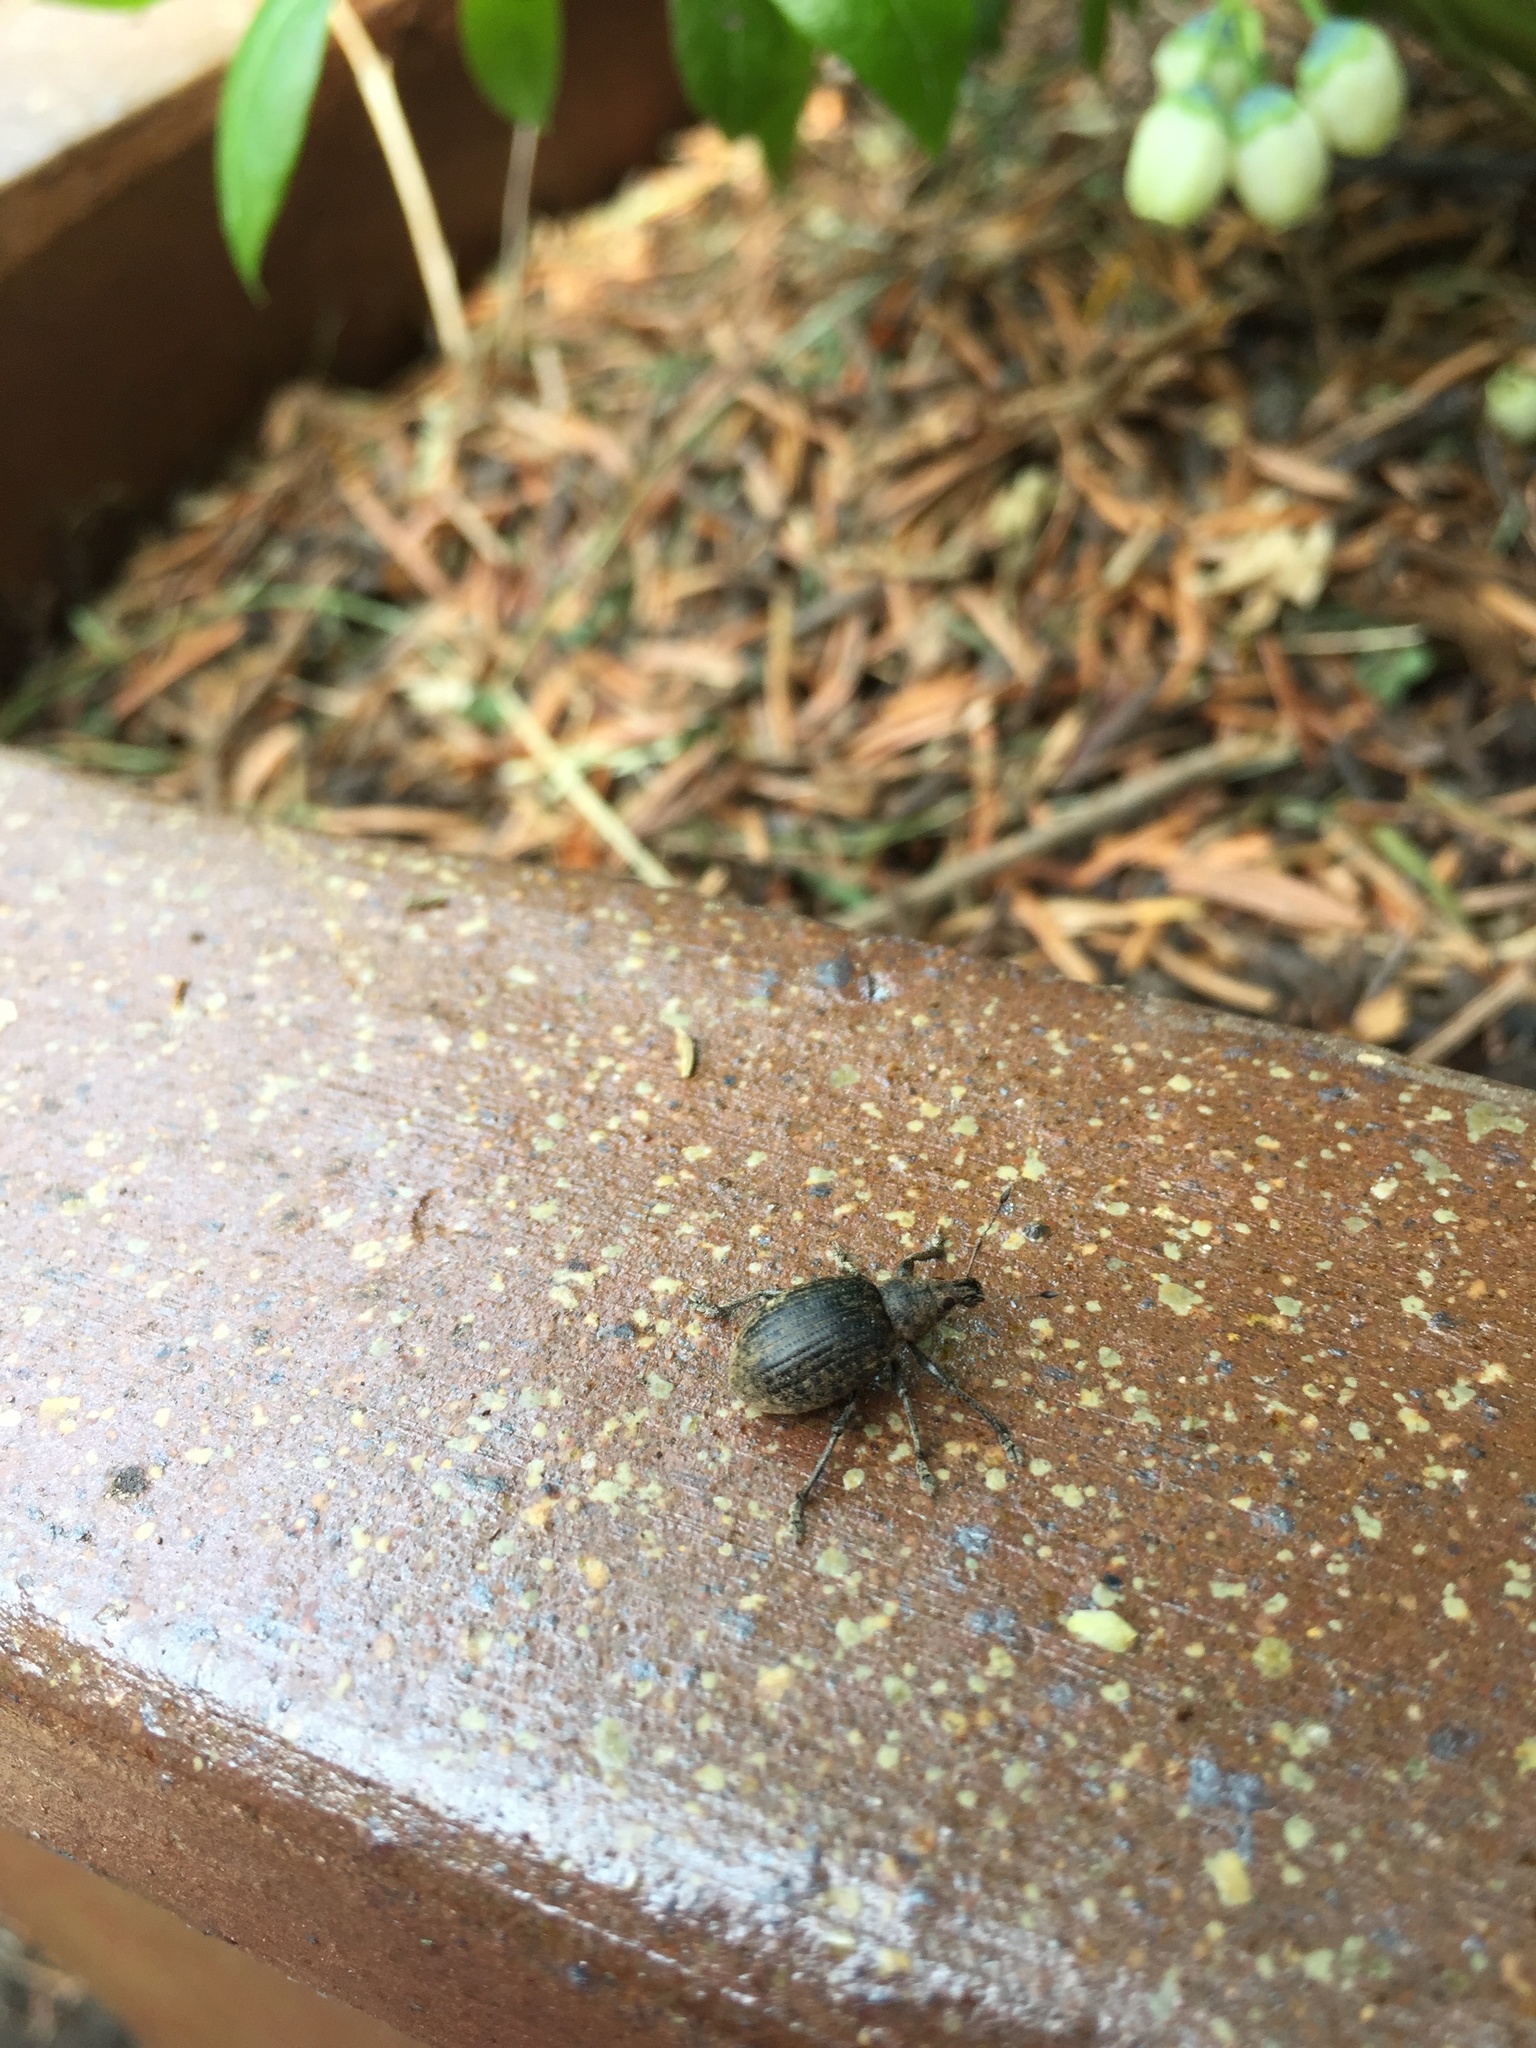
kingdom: Animalia
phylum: Arthropoda
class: Insecta
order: Coleoptera
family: Curculionidae
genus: Liophloeus
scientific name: Liophloeus tessulatus
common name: Weevil
